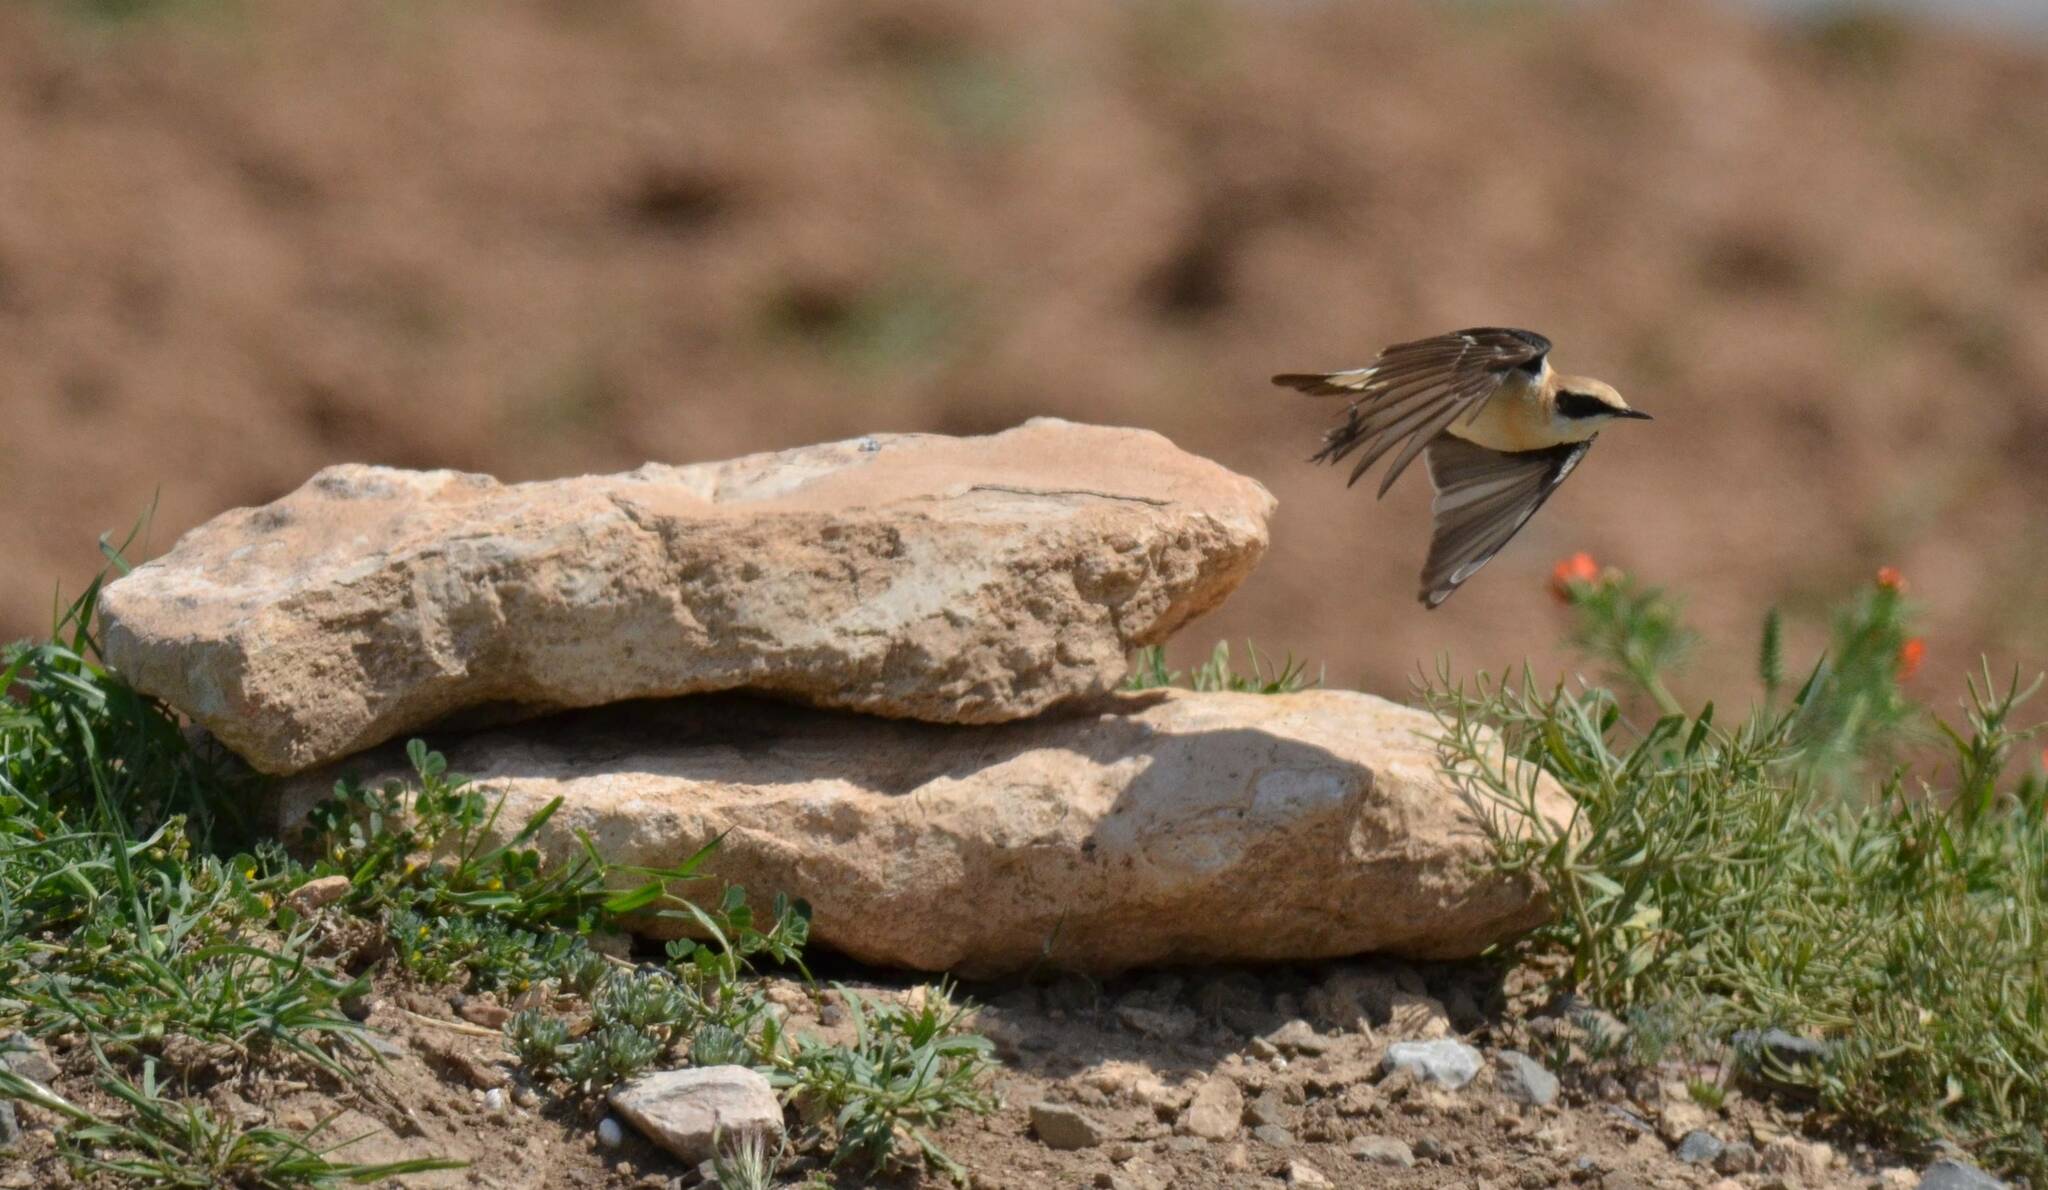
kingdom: Animalia
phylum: Chordata
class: Aves
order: Passeriformes
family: Muscicapidae
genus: Oenanthe
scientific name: Oenanthe hispanica
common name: Black-eared wheatear
